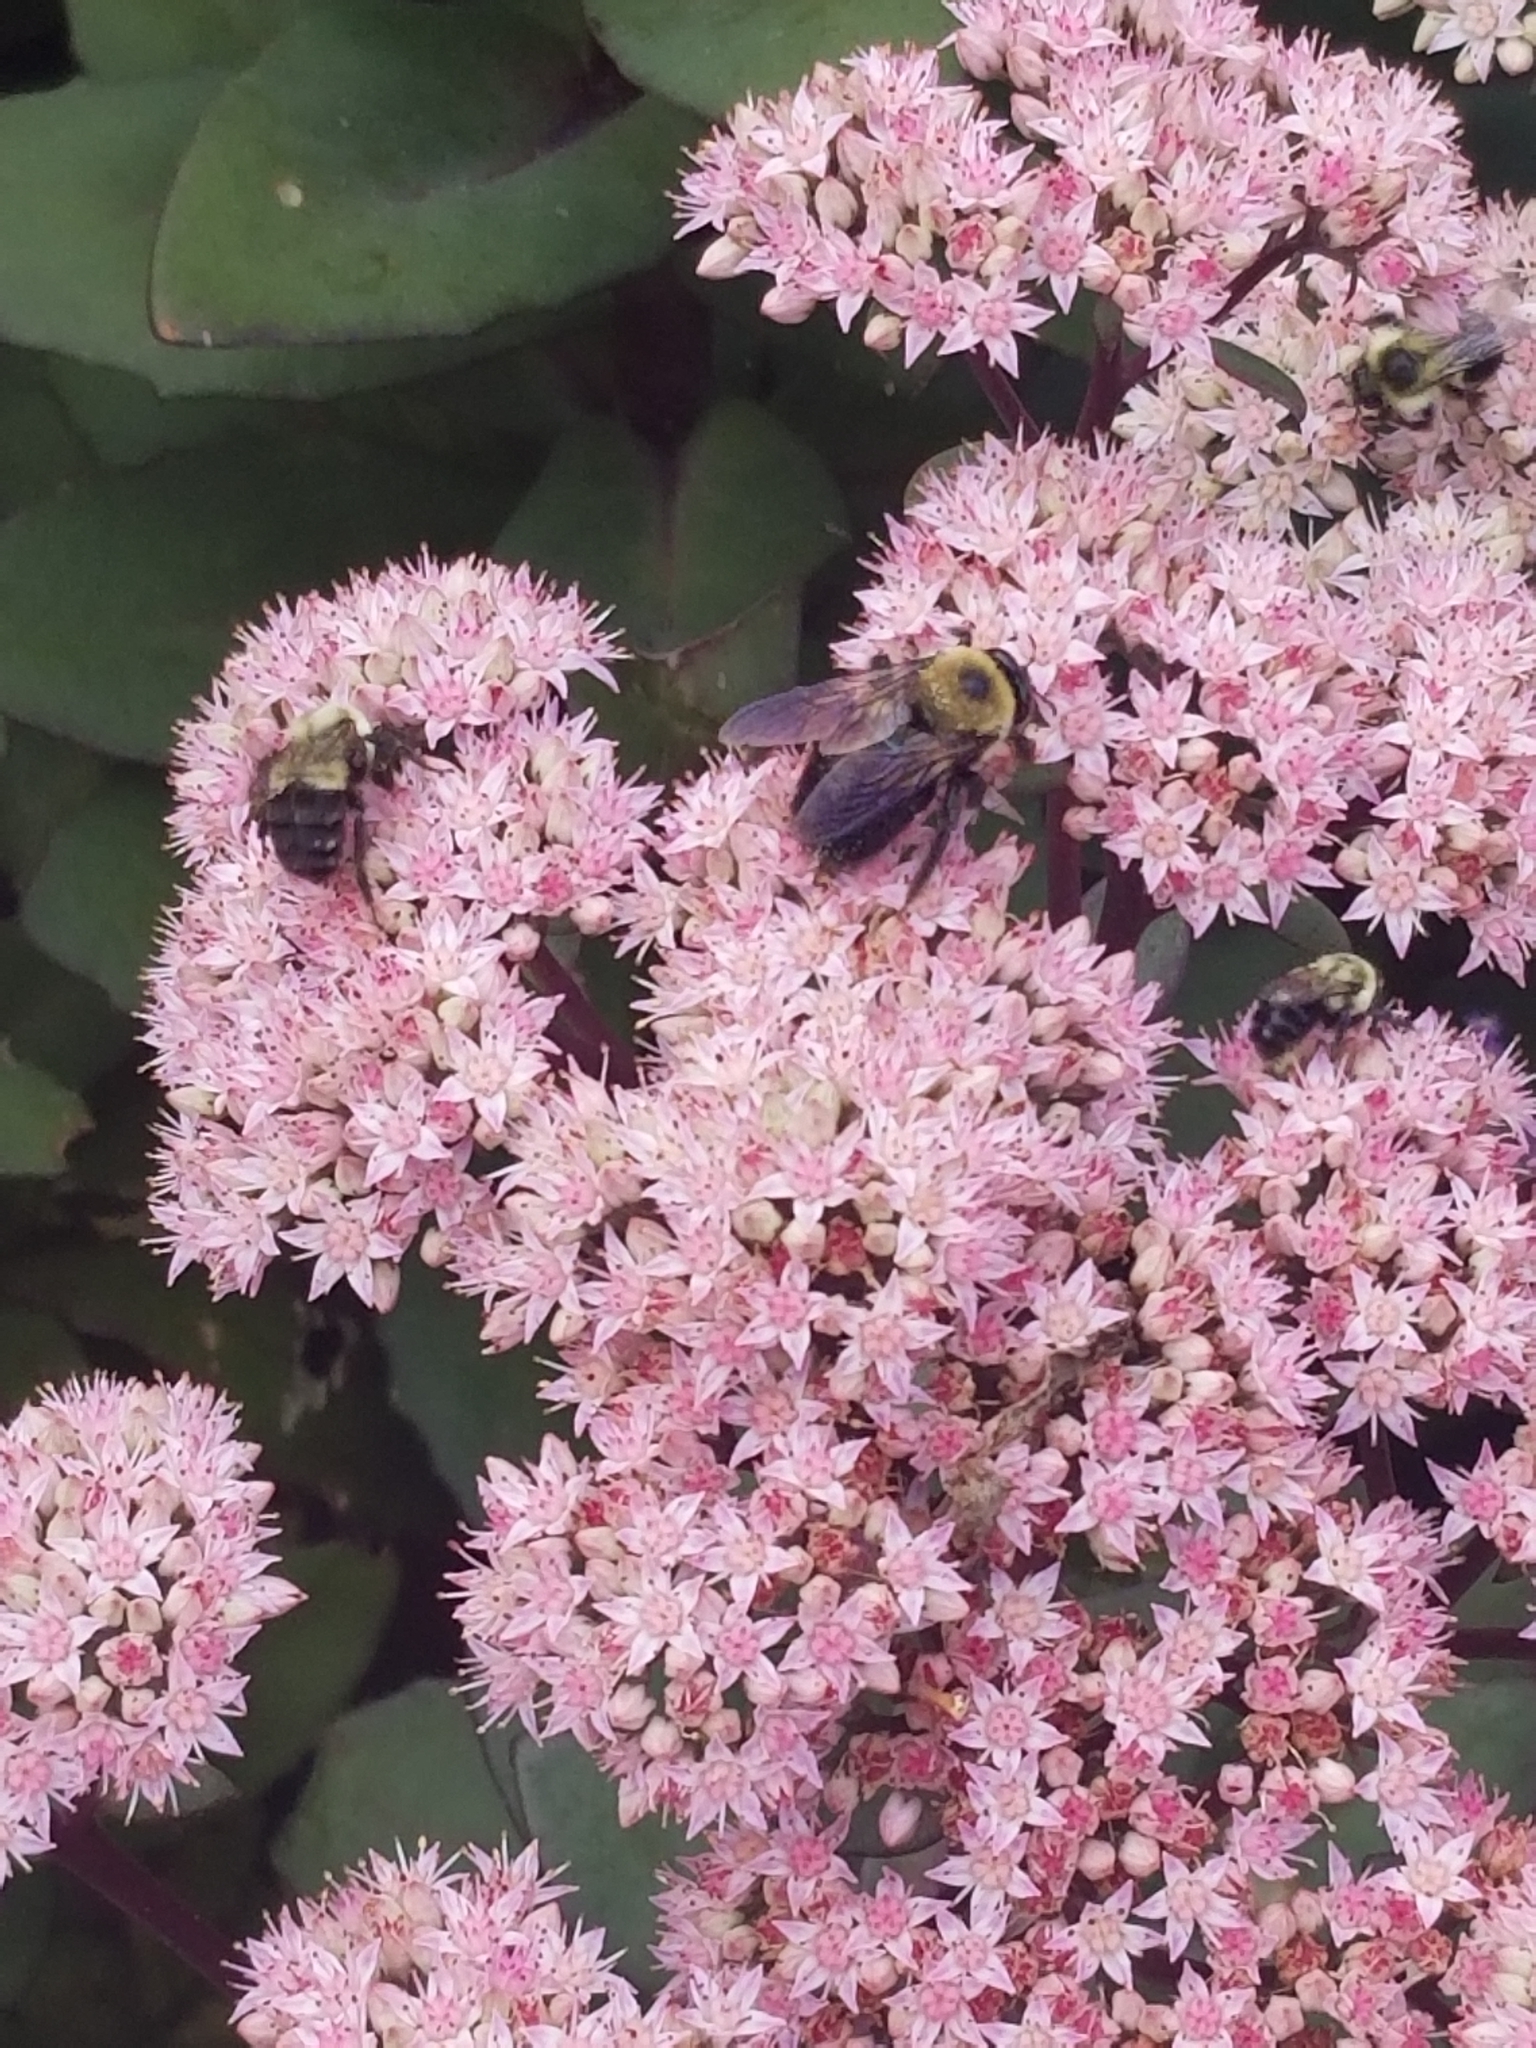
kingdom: Animalia
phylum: Arthropoda
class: Insecta
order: Hymenoptera
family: Apidae
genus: Xylocopa
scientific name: Xylocopa virginica
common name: Carpenter bee
